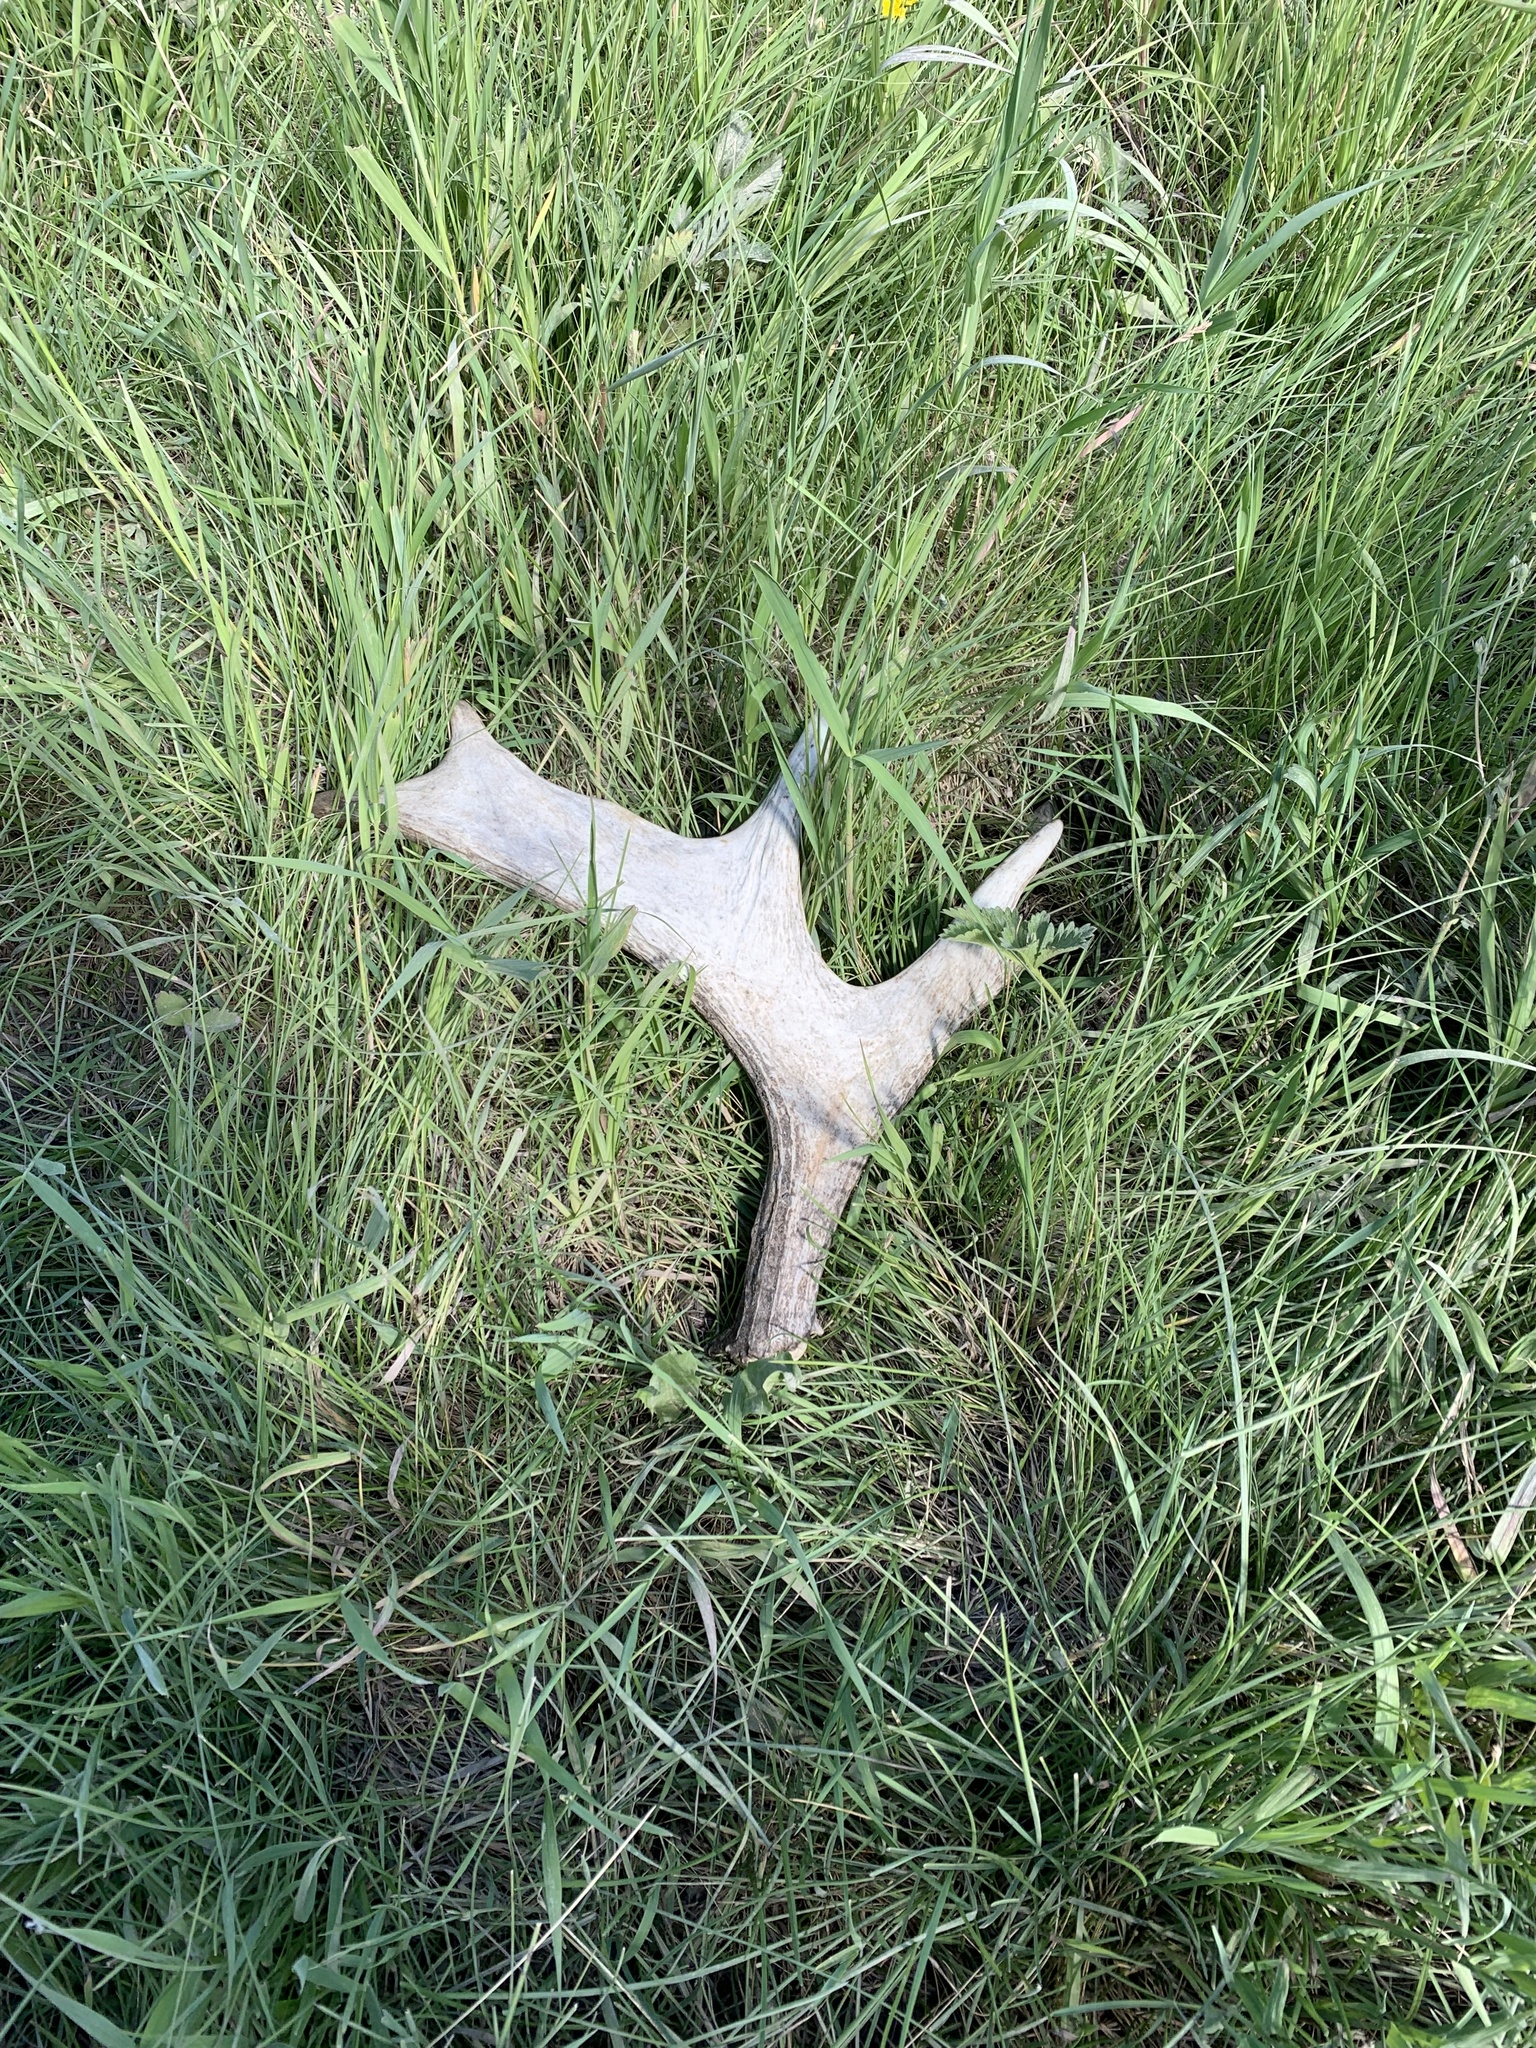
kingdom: Animalia
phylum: Chordata
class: Mammalia
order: Artiodactyla
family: Cervidae
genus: Alces
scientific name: Alces alces
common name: Moose
